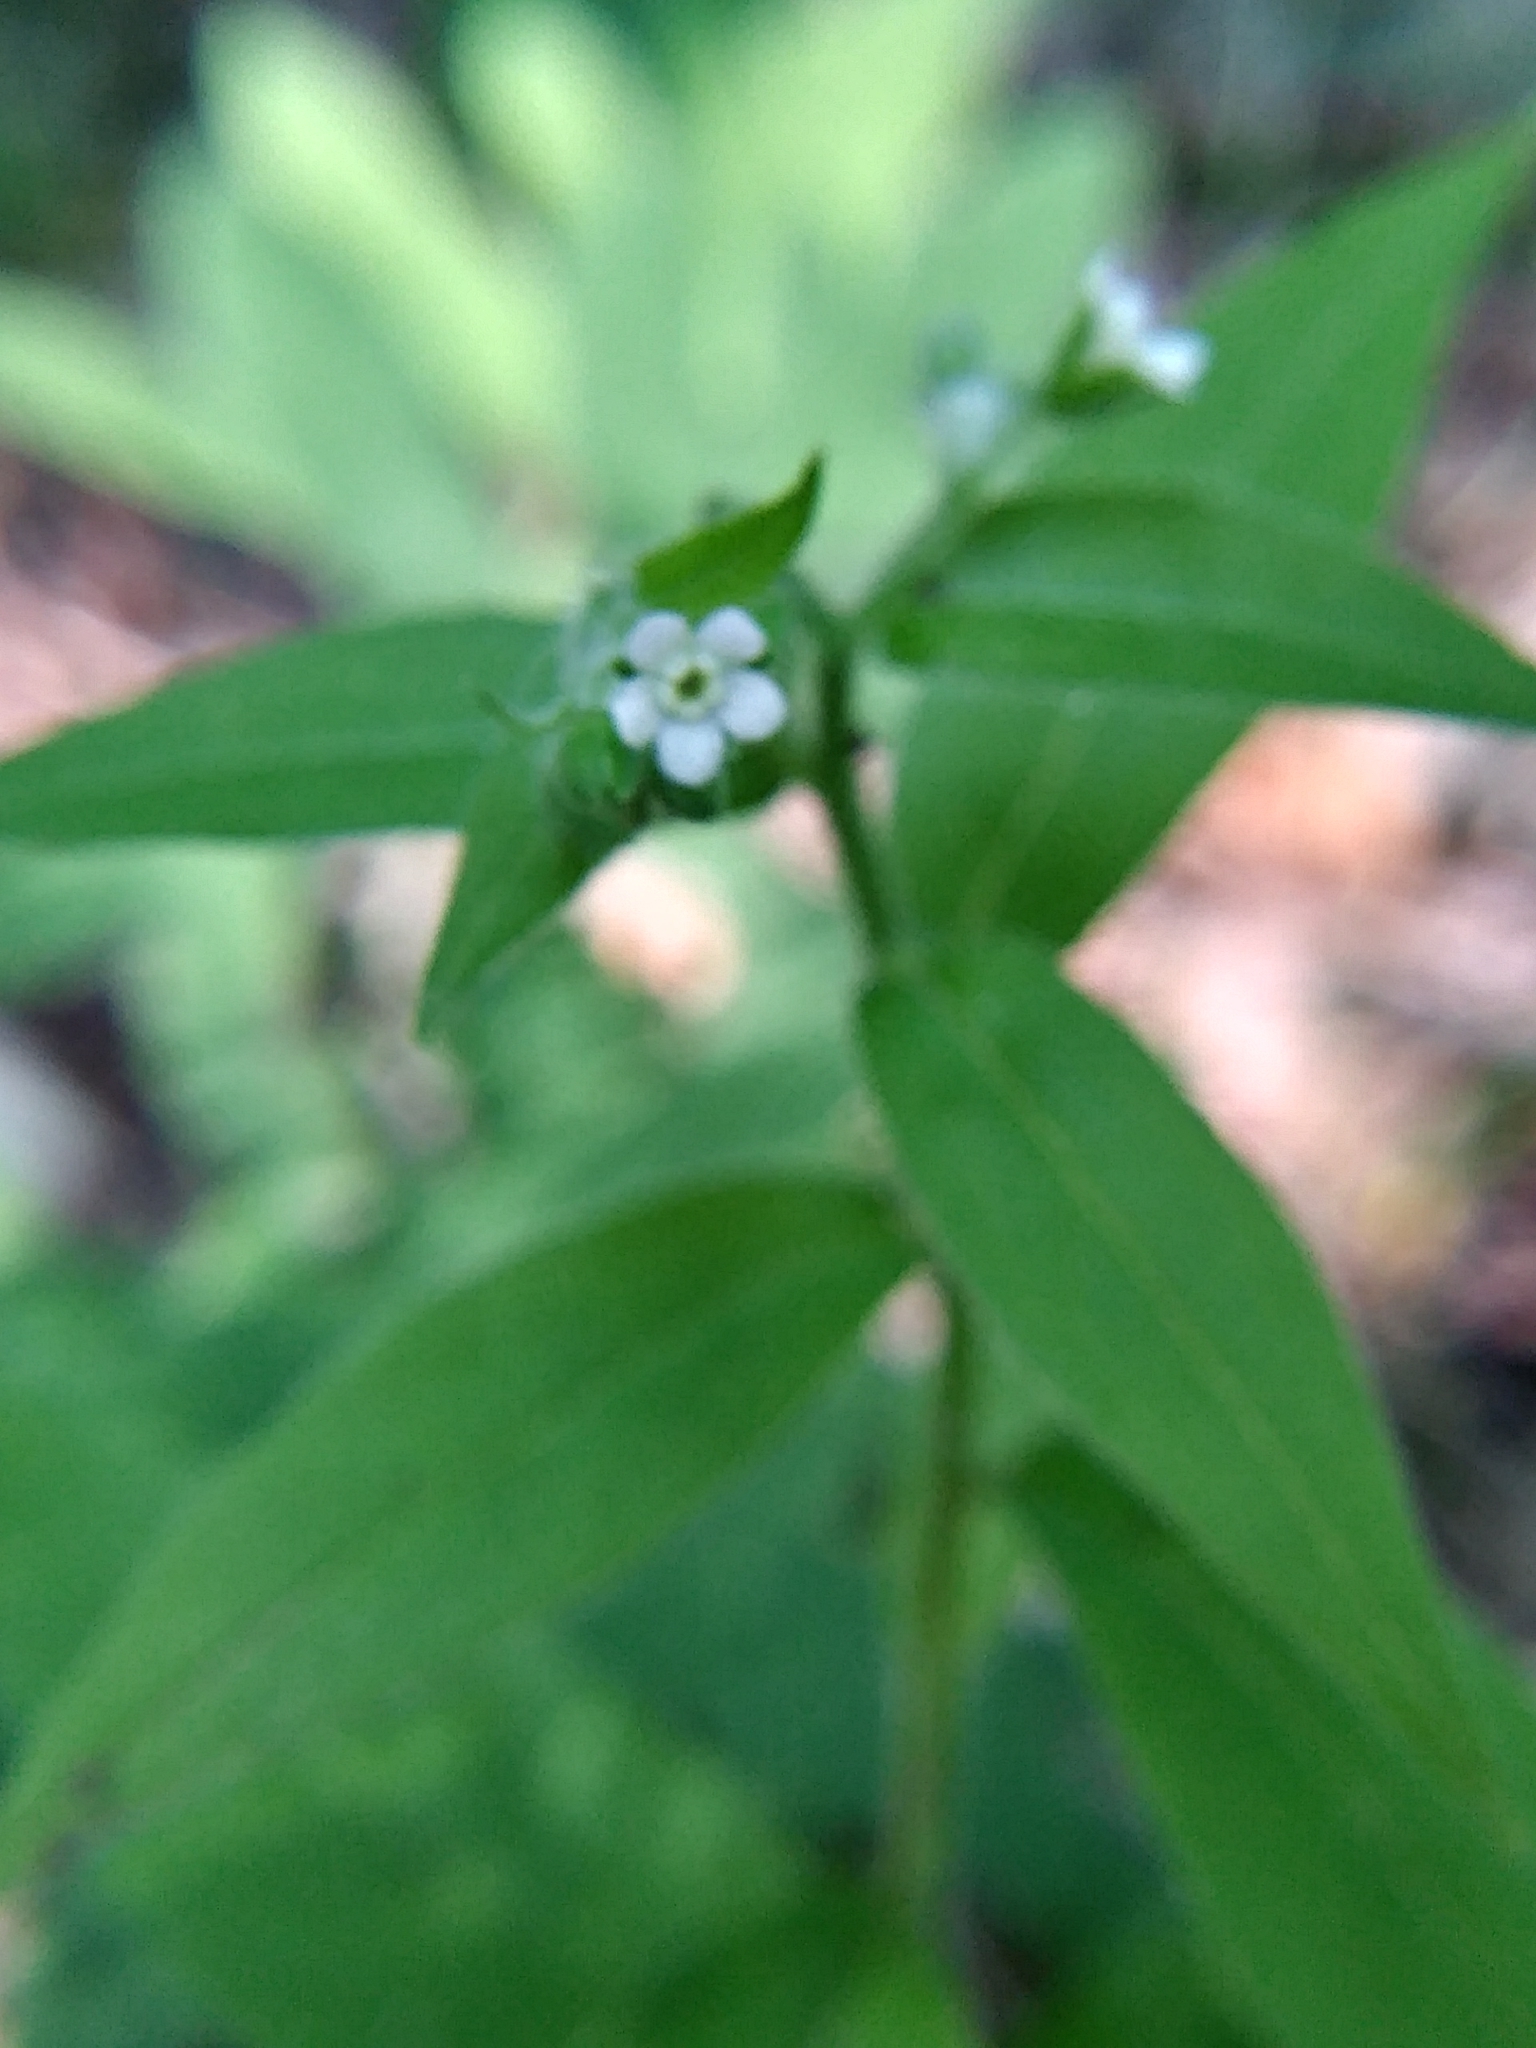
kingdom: Plantae
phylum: Tracheophyta
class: Magnoliopsida
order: Boraginales
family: Boraginaceae
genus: Hackelia
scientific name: Hackelia virginiana
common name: Beggar's-lice
